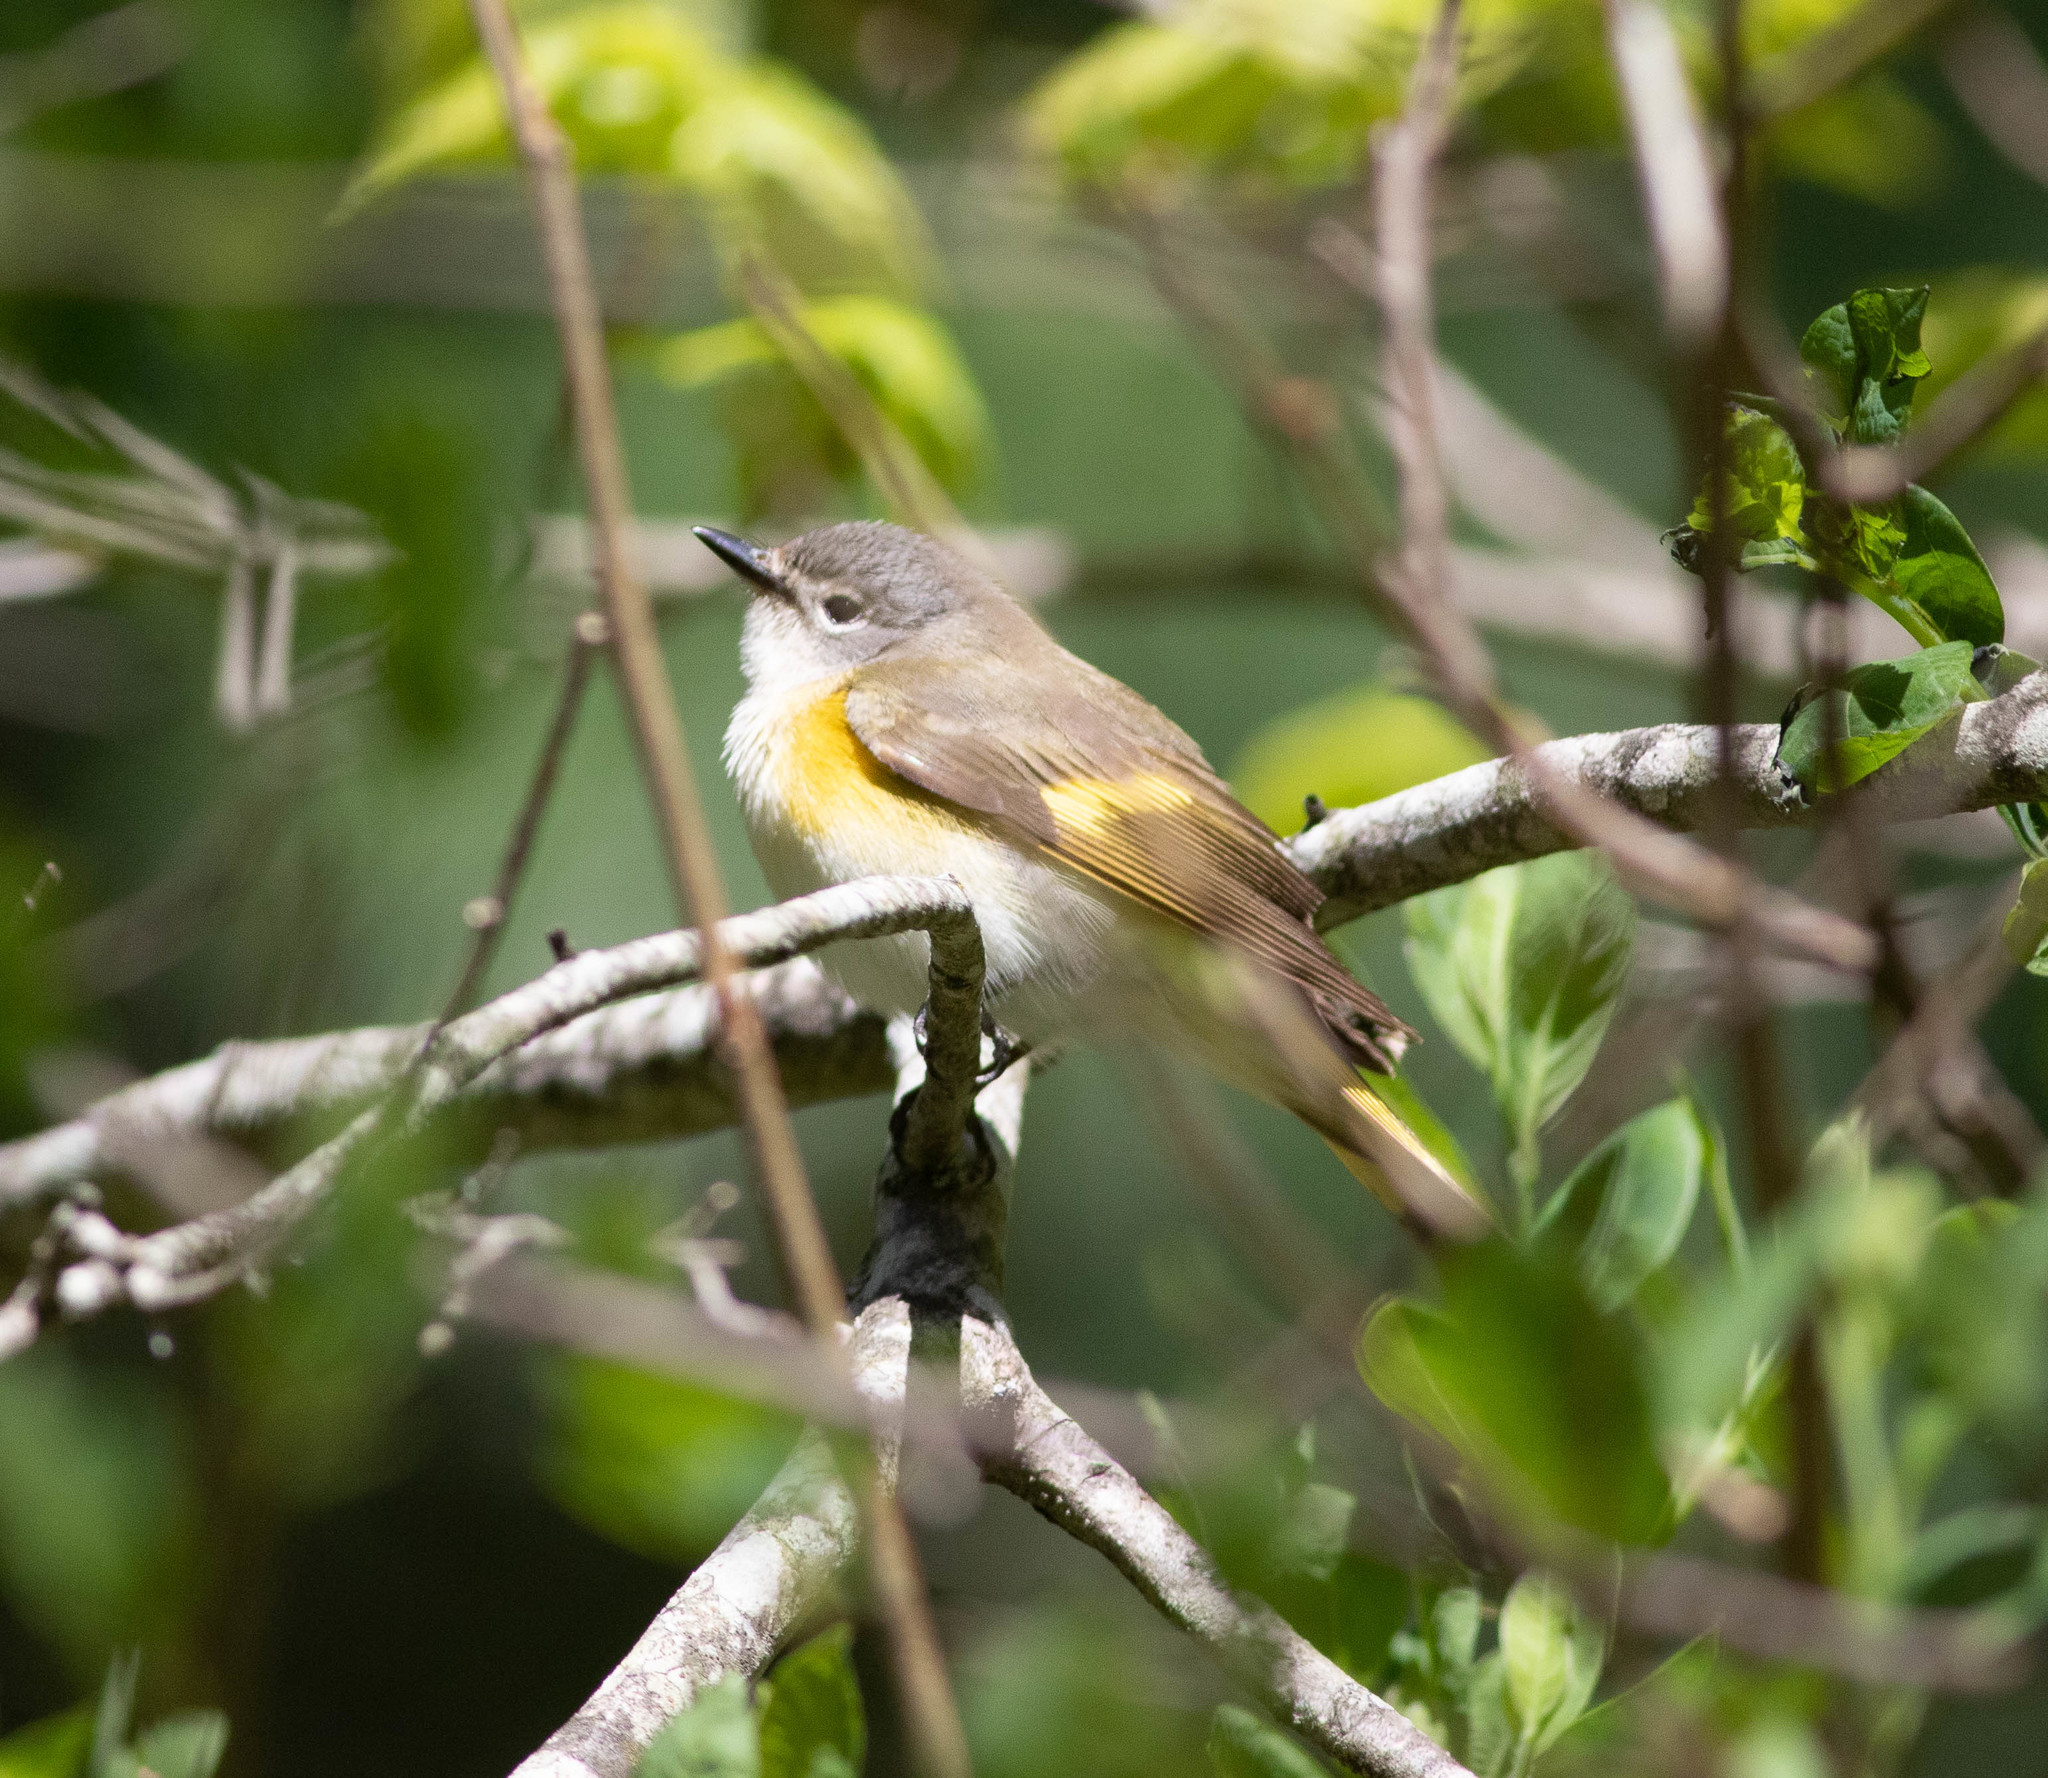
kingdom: Animalia
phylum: Chordata
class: Aves
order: Passeriformes
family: Parulidae
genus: Setophaga
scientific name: Setophaga ruticilla
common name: American redstart
